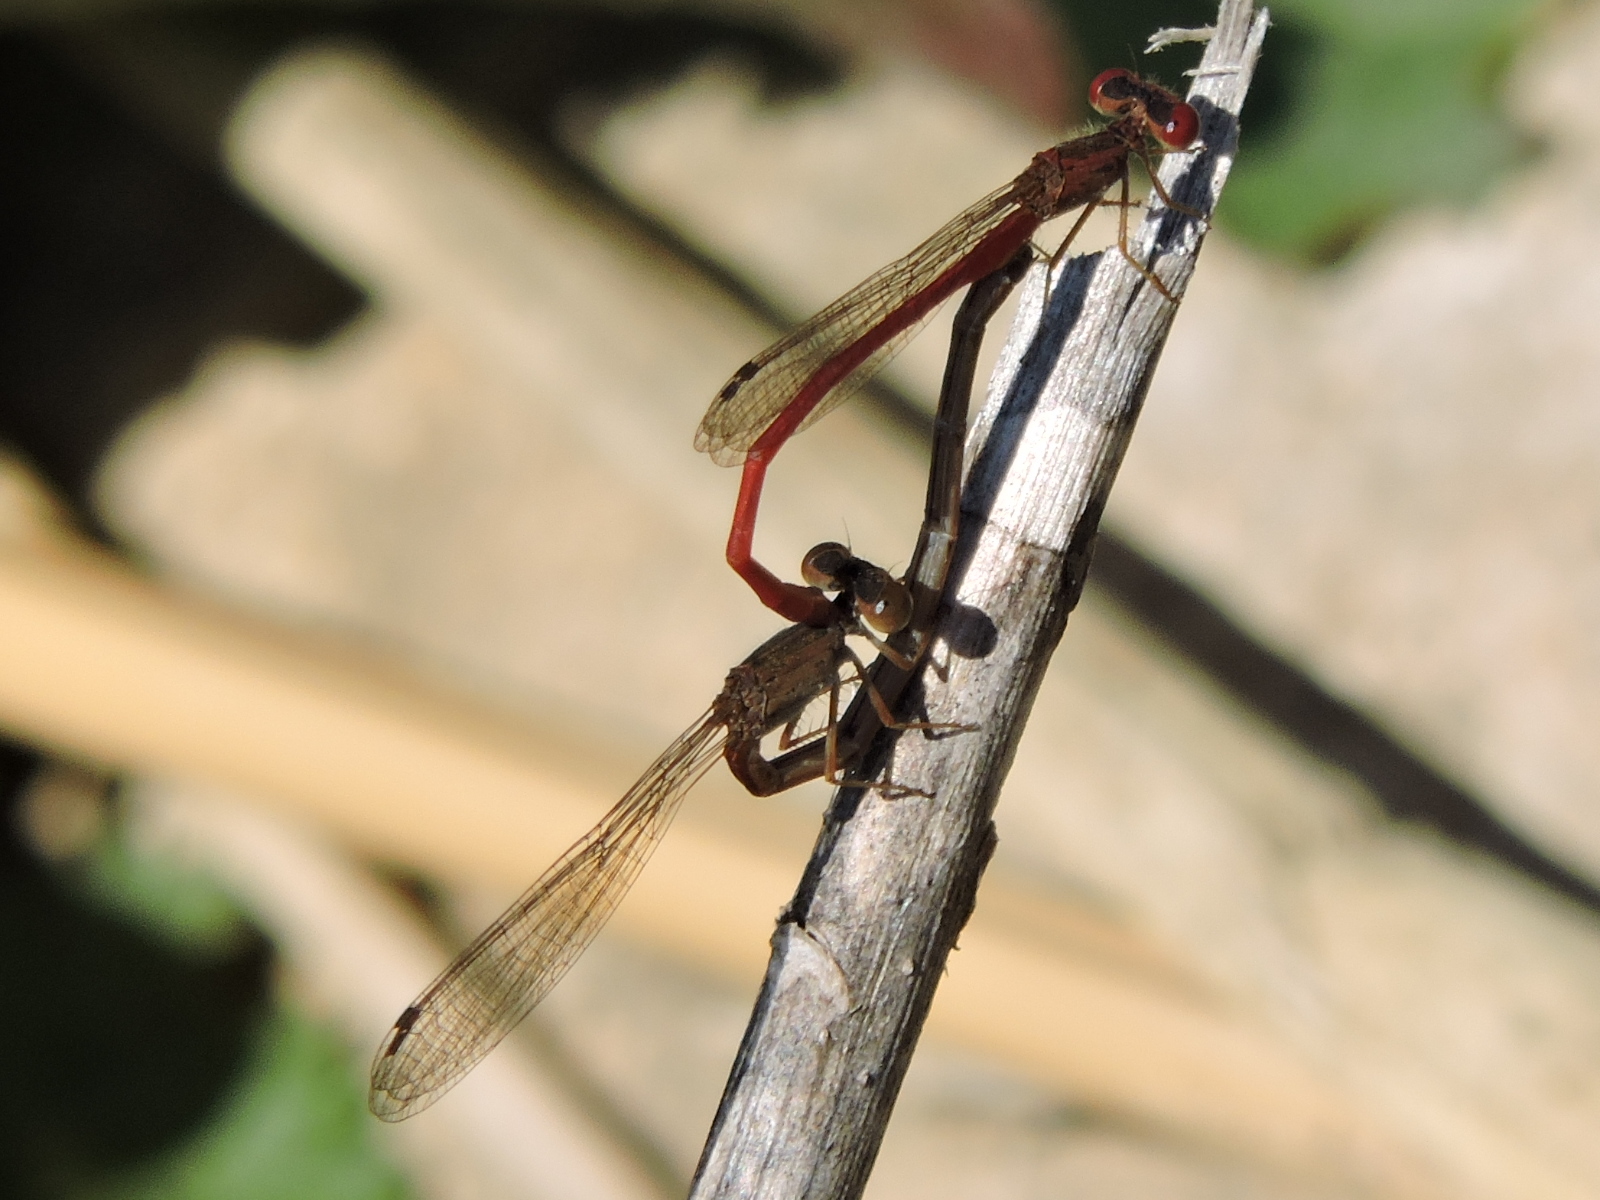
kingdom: Animalia
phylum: Arthropoda
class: Insecta
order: Odonata
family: Coenagrionidae
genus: Telebasis
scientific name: Telebasis salva
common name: Desert firetail
